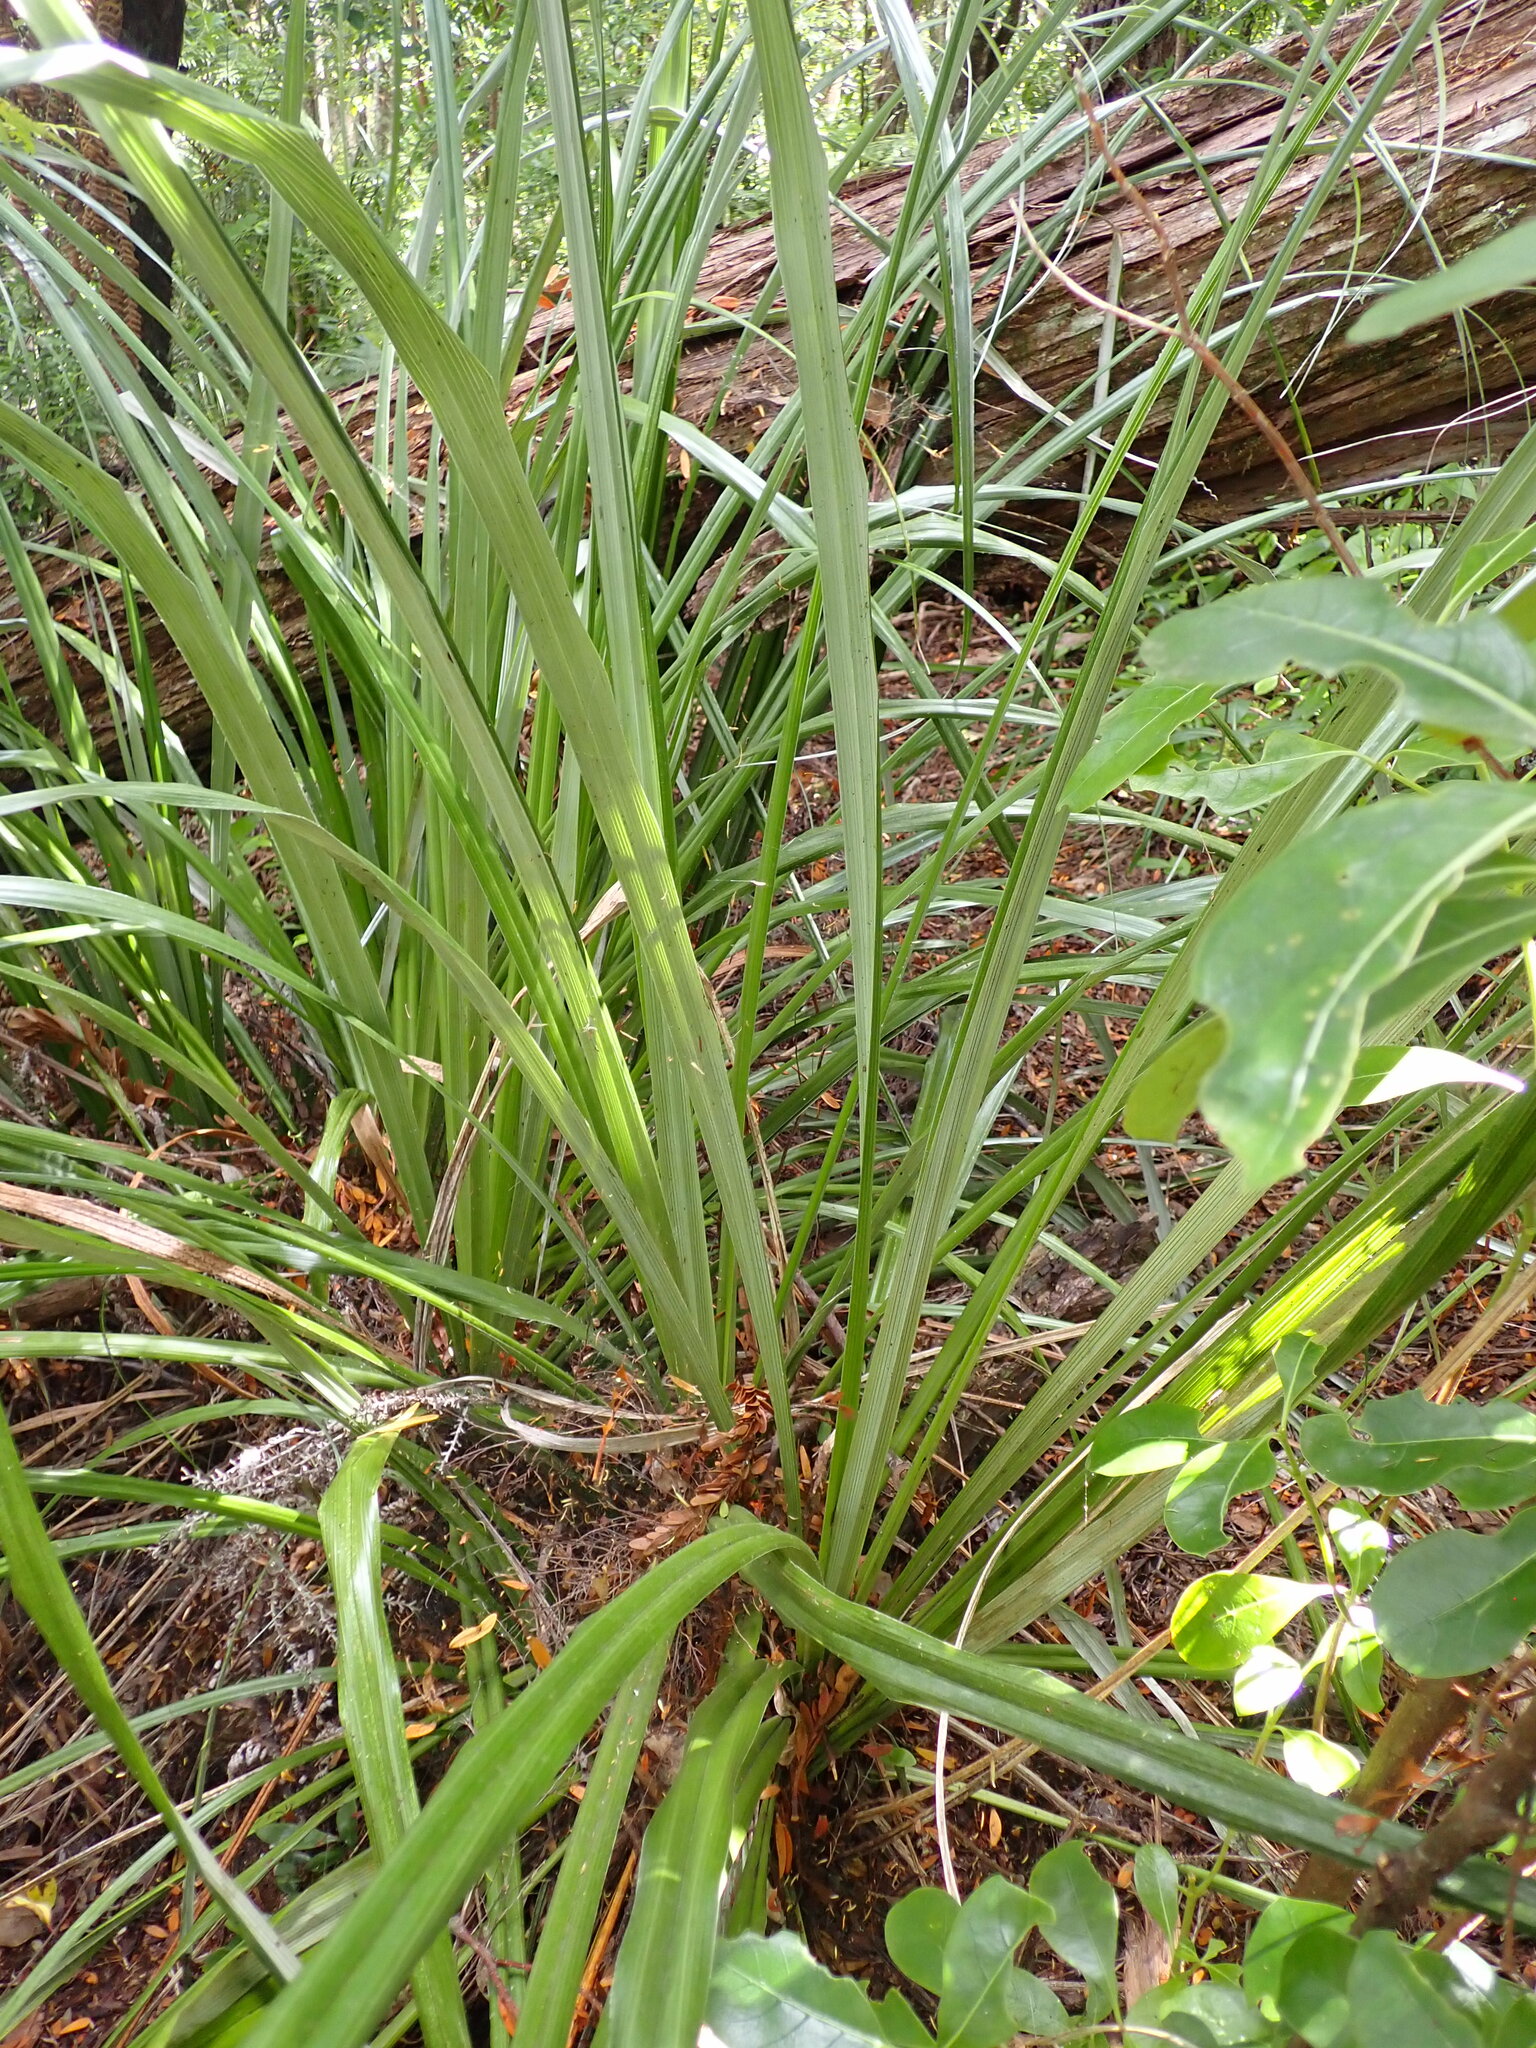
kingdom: Plantae
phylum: Tracheophyta
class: Liliopsida
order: Asparagales
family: Asteliaceae
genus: Astelia
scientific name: Astelia banksii
